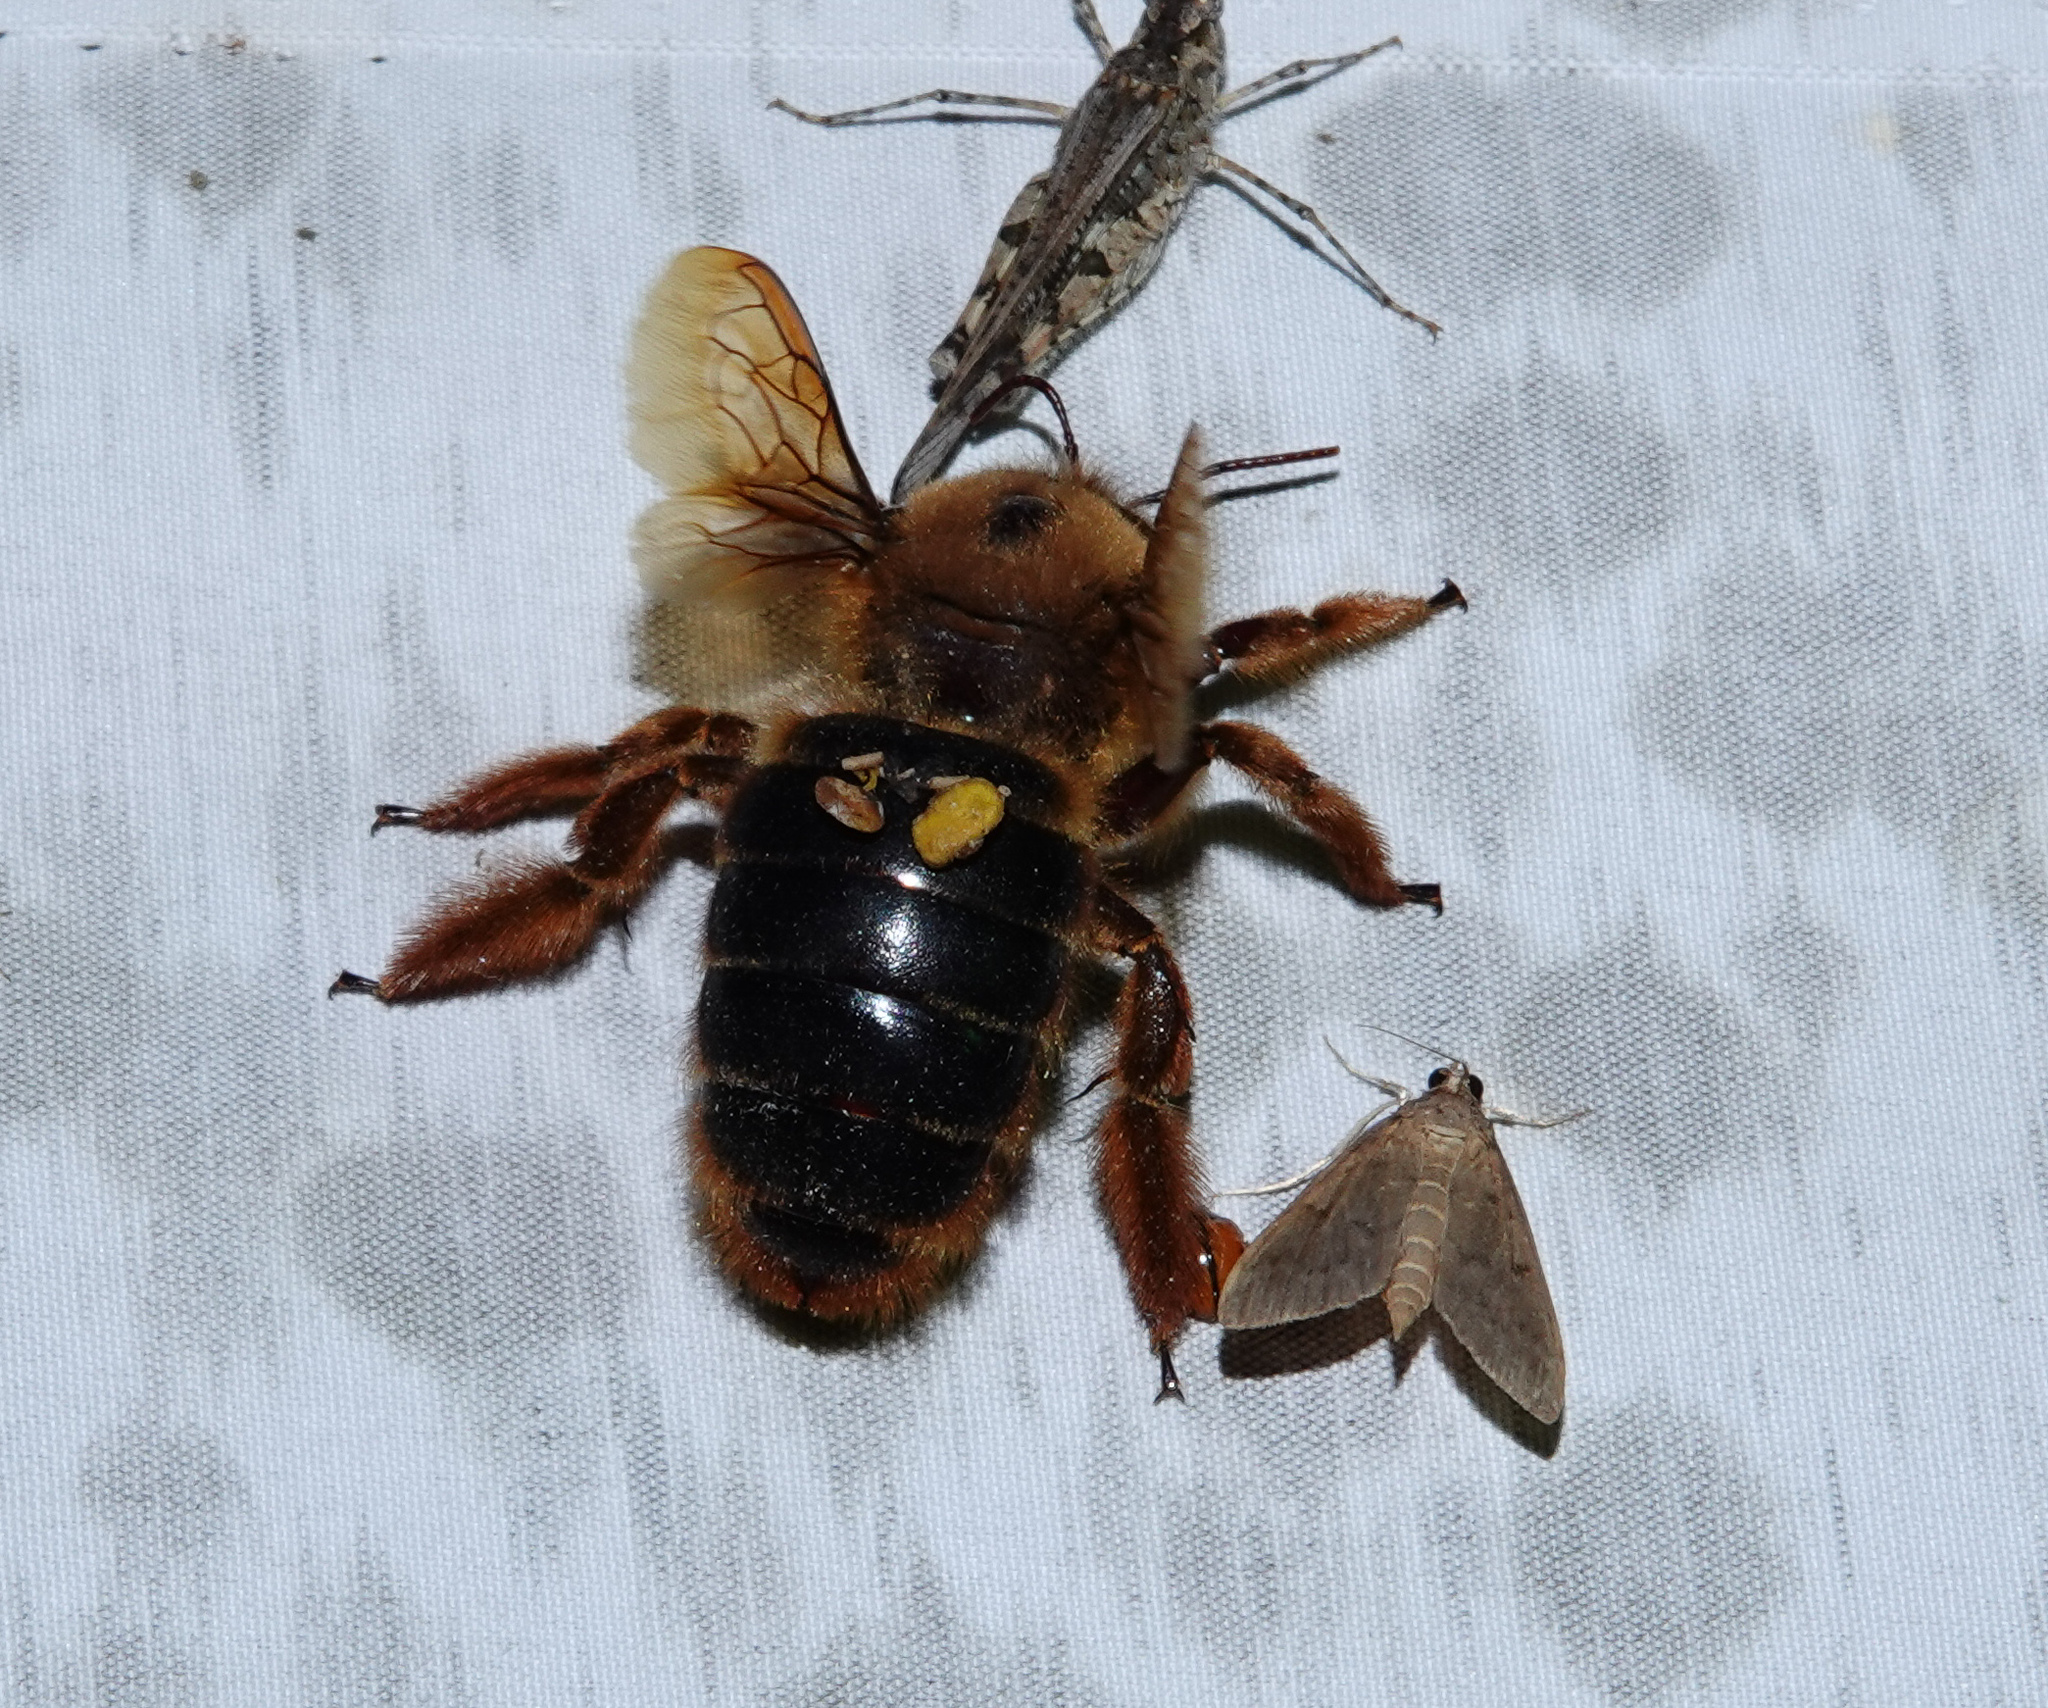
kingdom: Animalia
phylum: Arthropoda
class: Insecta
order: Hymenoptera
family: Apidae
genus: Xylocopa
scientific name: Xylocopa tranquebarica
